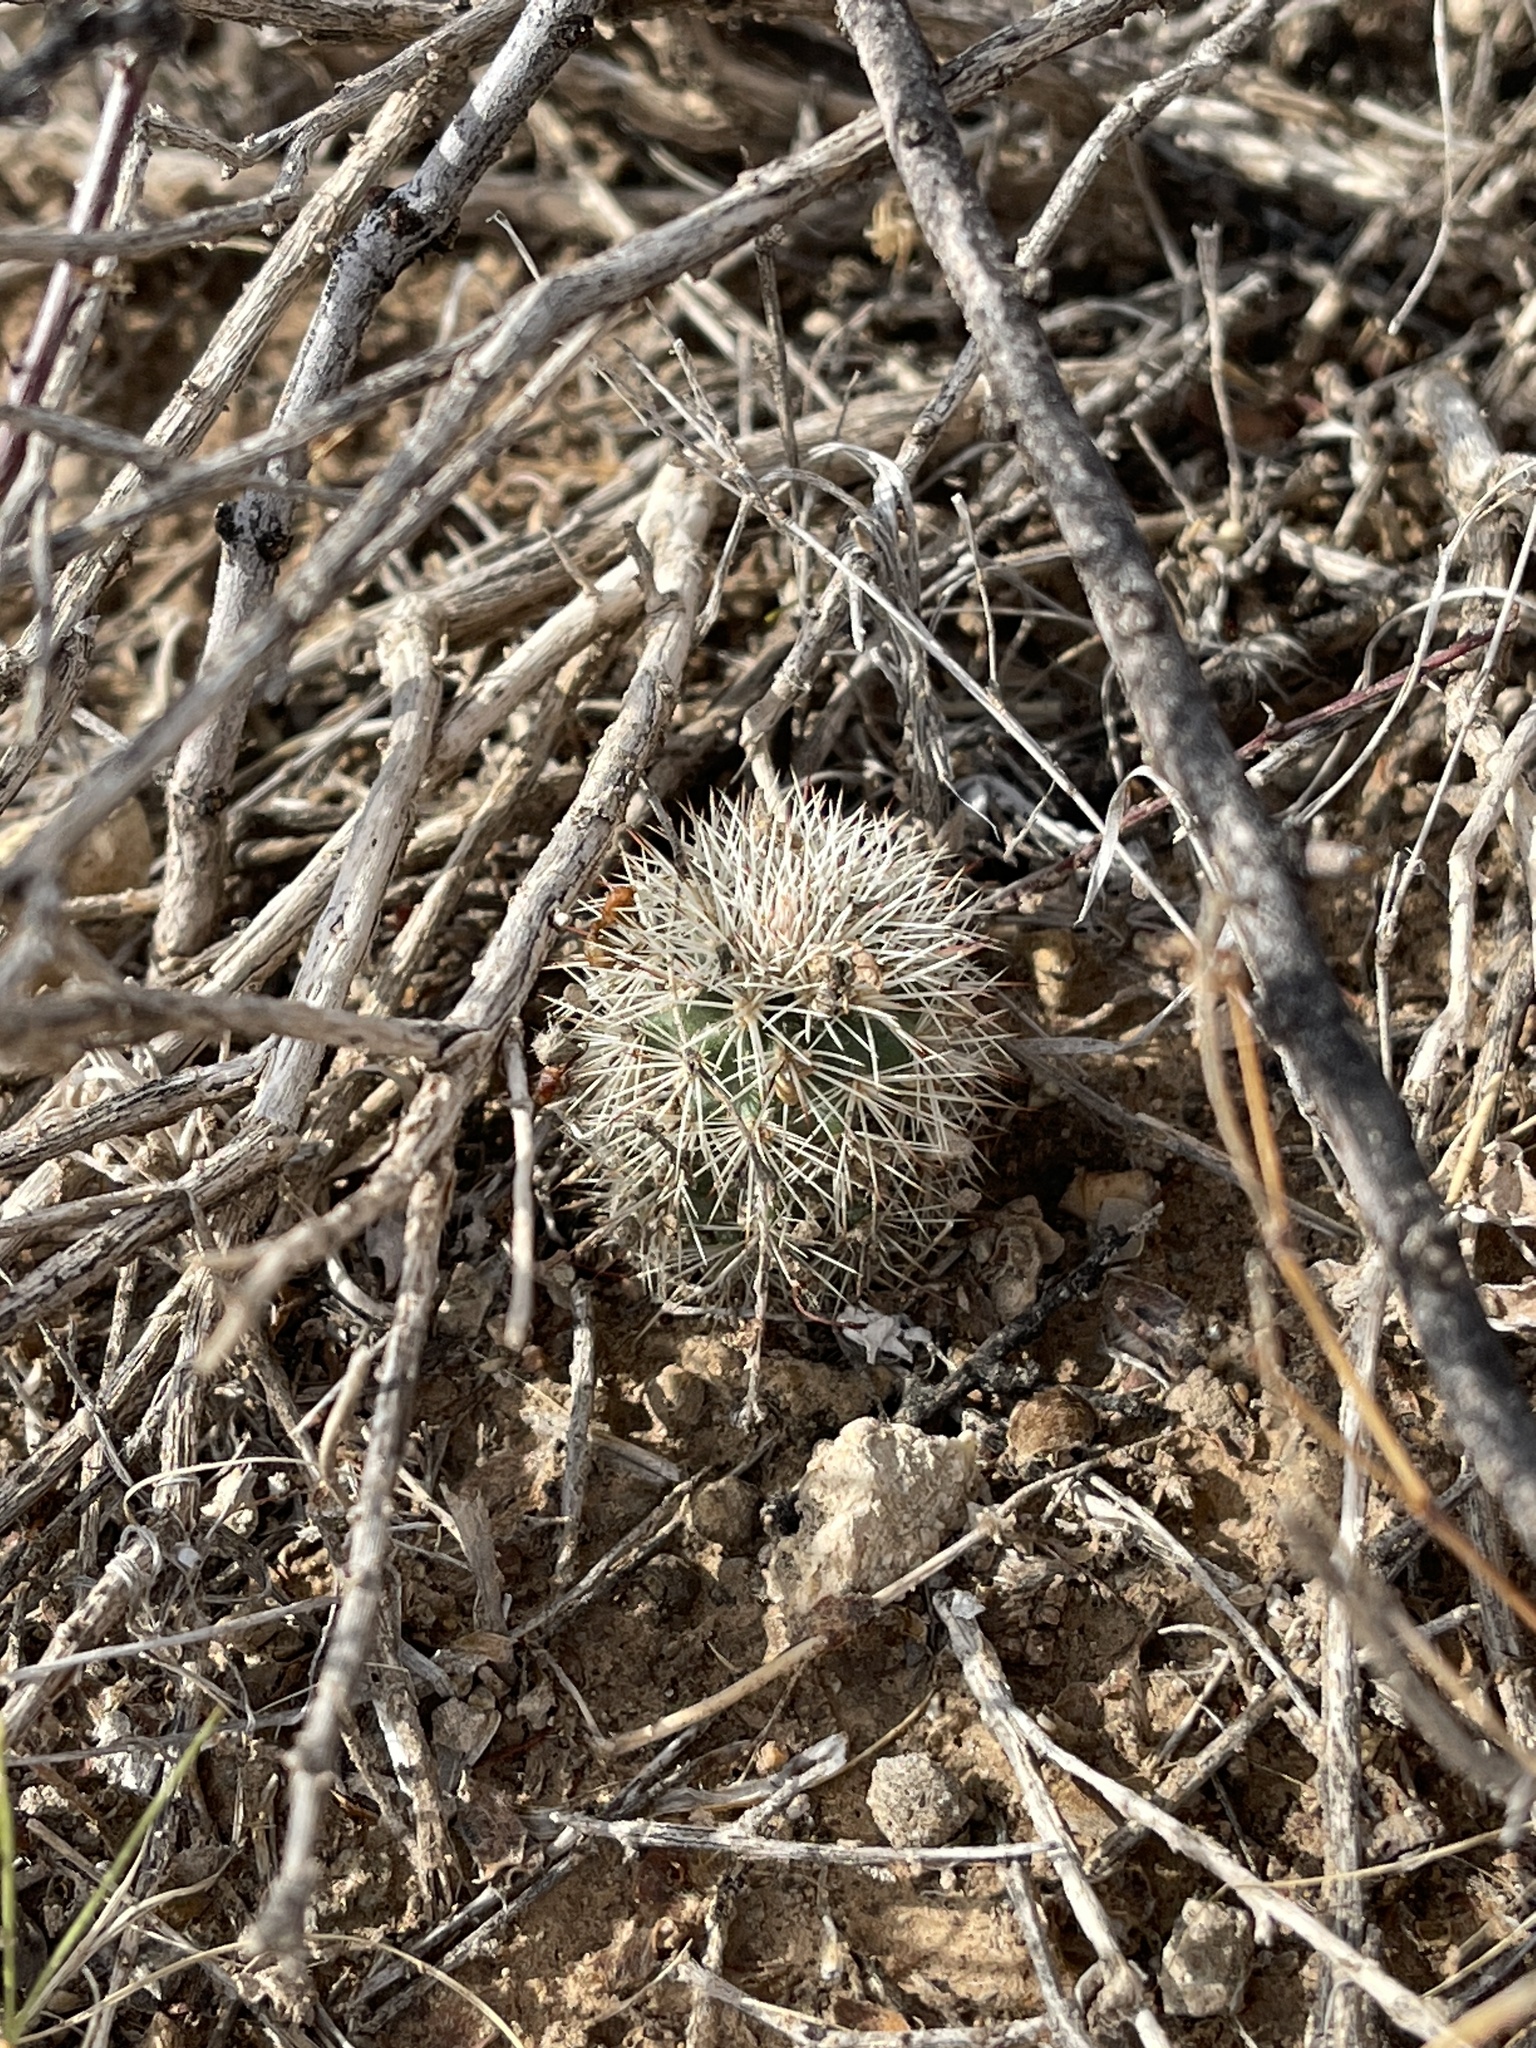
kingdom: Plantae
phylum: Tracheophyta
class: Magnoliopsida
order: Caryophyllales
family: Cactaceae
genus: Echinocereus
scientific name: Echinocereus dasyacanthus
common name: Spiny hedgehog cactus
